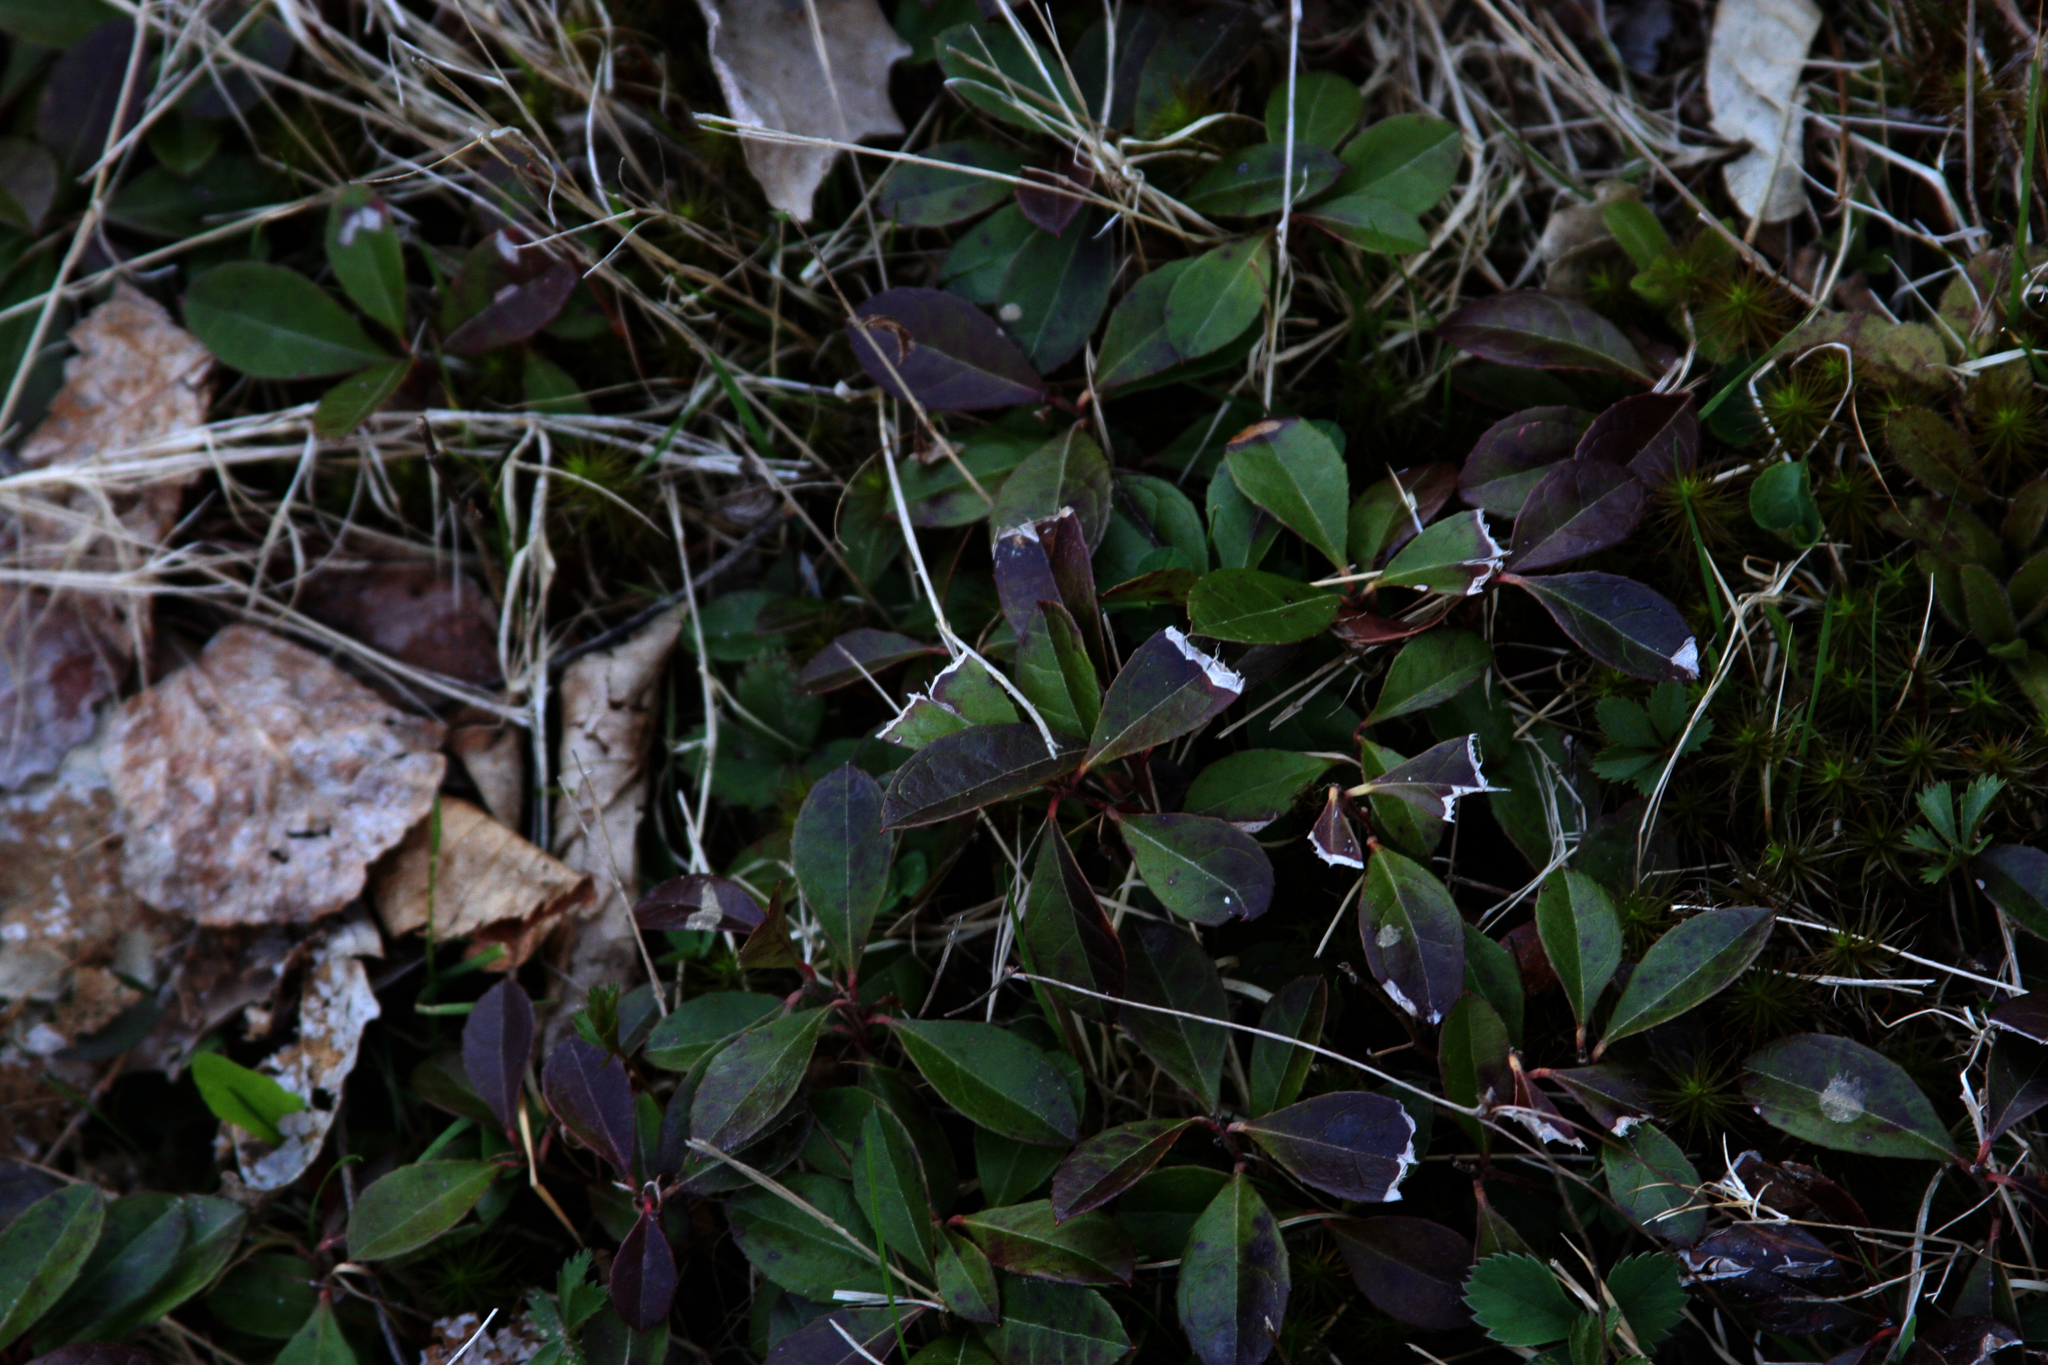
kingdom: Plantae
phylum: Tracheophyta
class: Magnoliopsida
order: Ericales
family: Ericaceae
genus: Gaultheria
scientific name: Gaultheria procumbens
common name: Checkerberry
